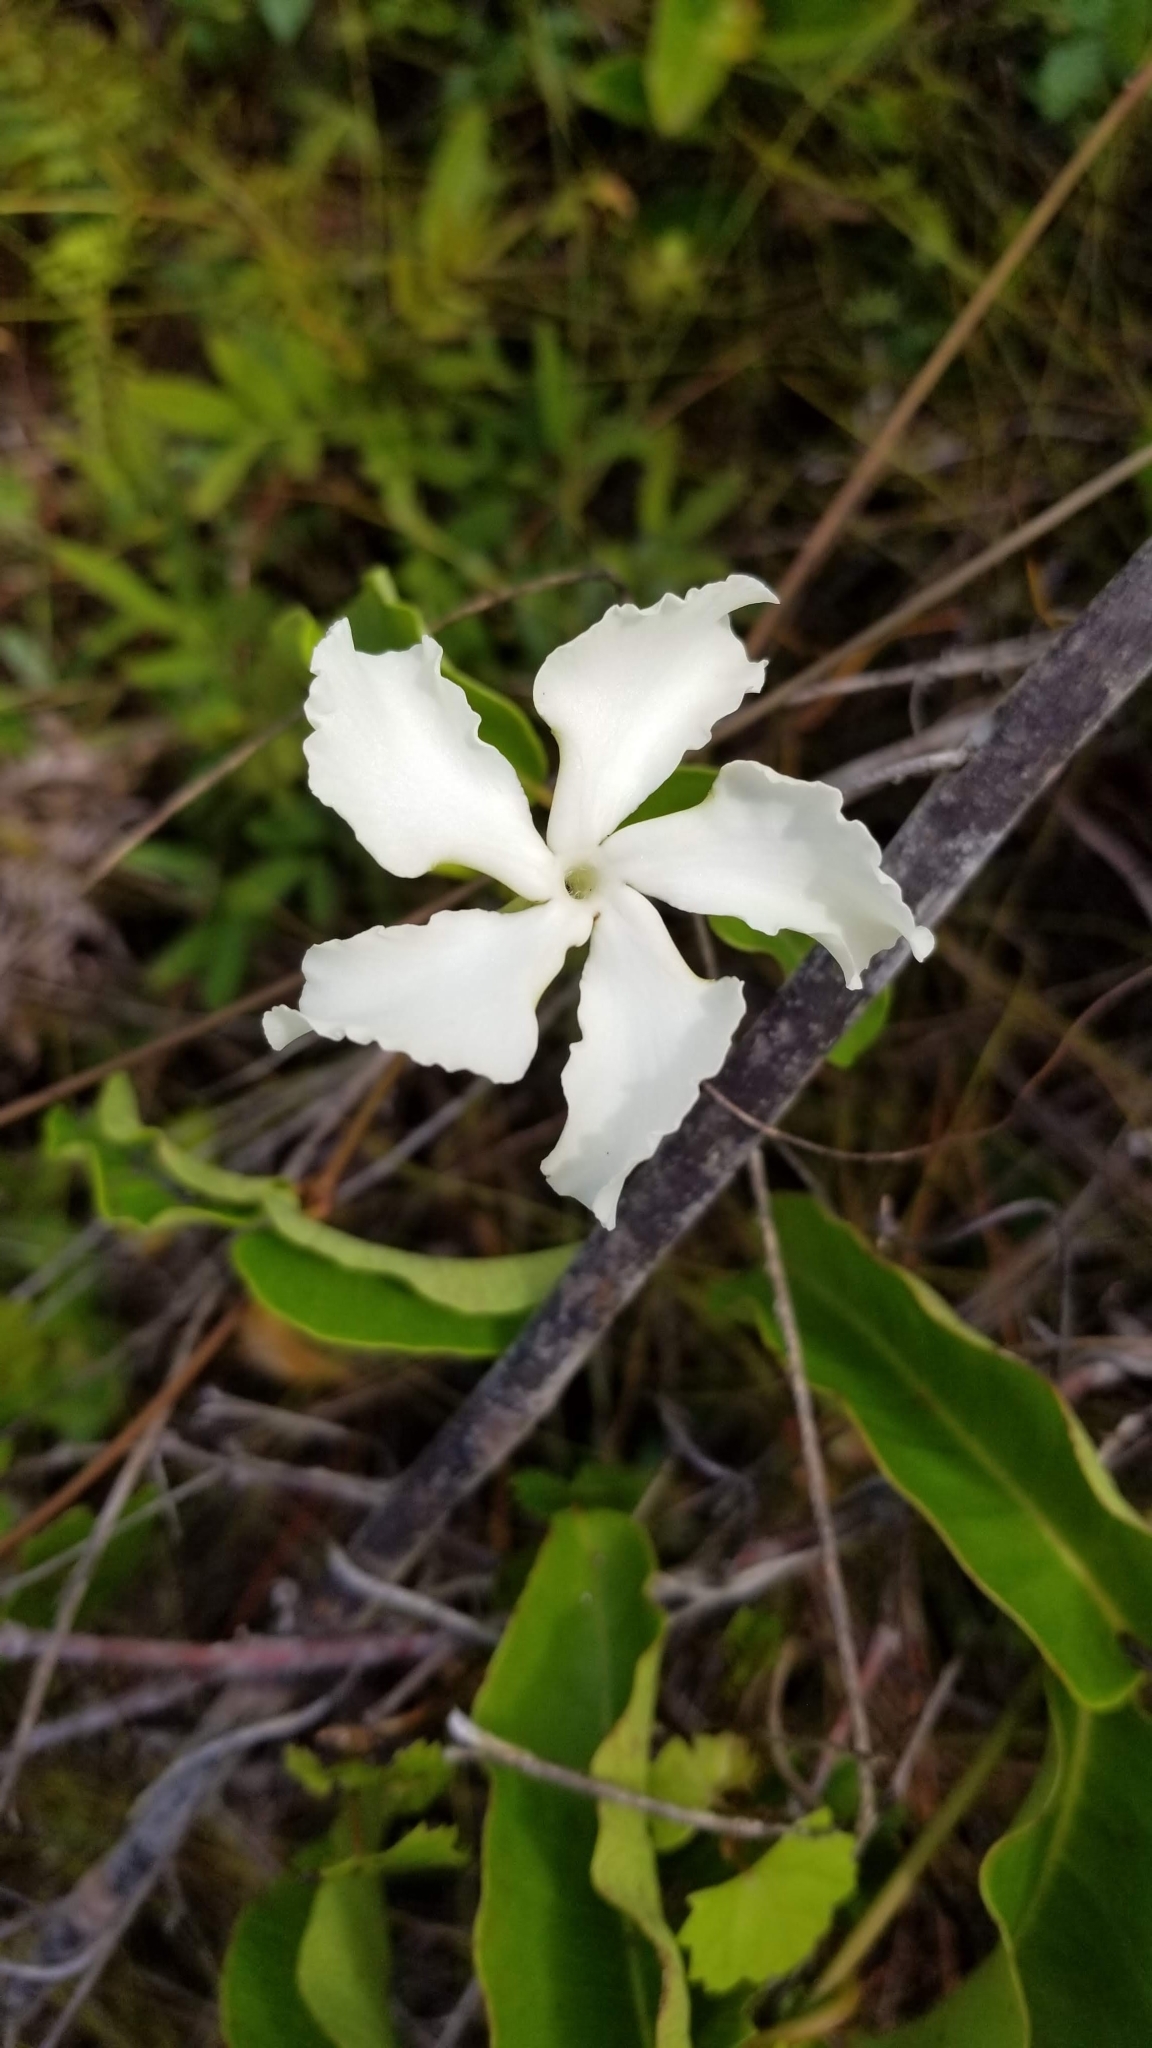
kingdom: Plantae
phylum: Tracheophyta
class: Magnoliopsida
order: Gentianales
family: Apocynaceae
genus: Echites
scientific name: Echites umbellatus
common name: Devil's potato
